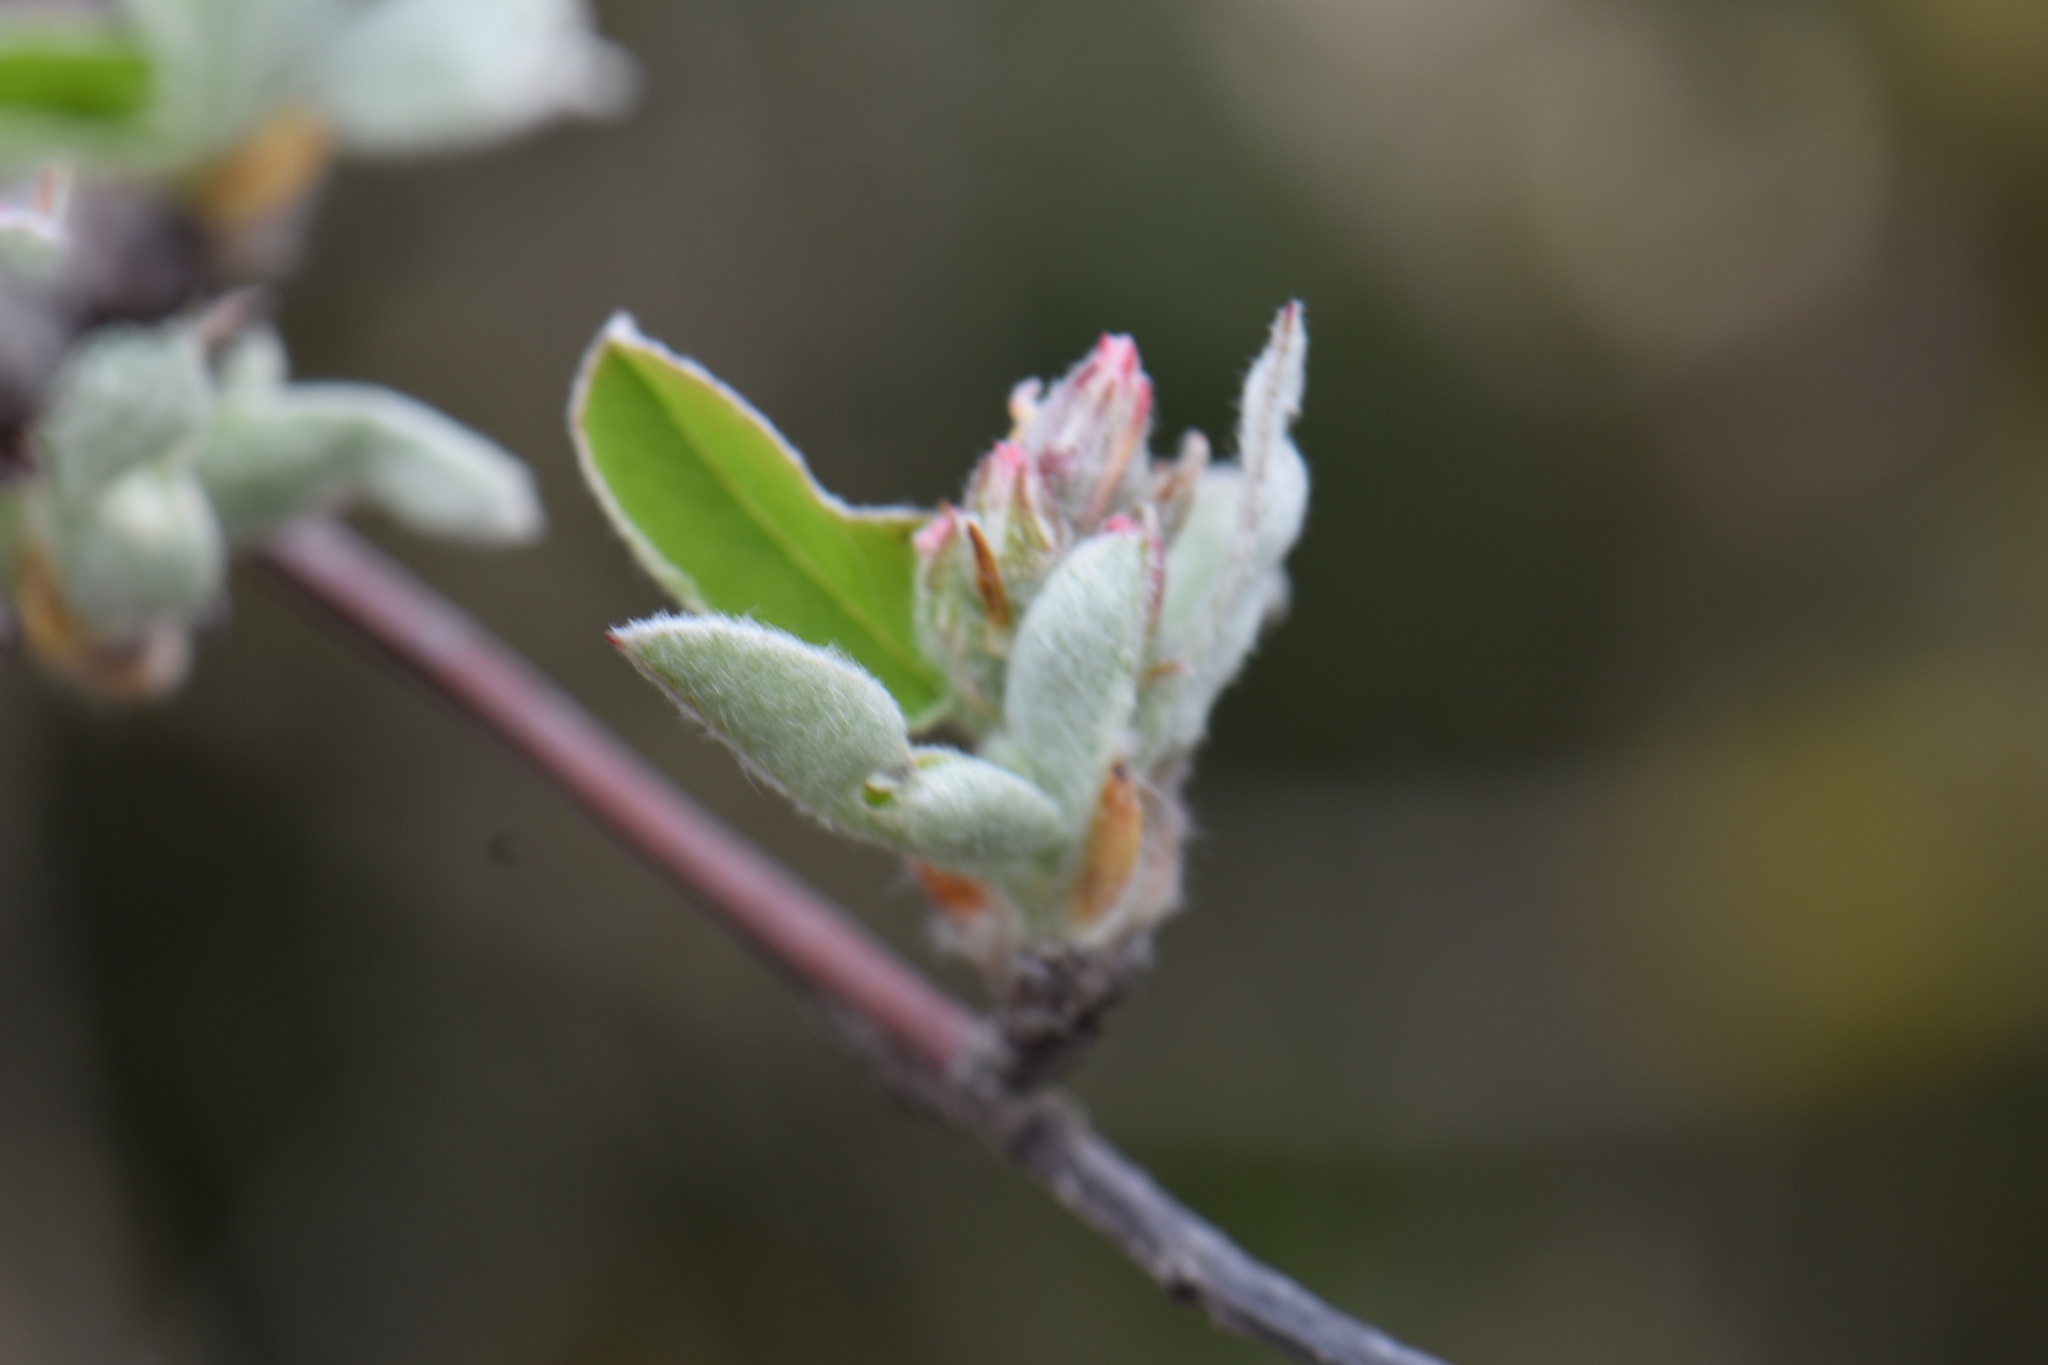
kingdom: Plantae
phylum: Tracheophyta
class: Magnoliopsida
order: Rosales
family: Rosaceae
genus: Amelanchier
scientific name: Amelanchier ovalis
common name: Serviceberry
